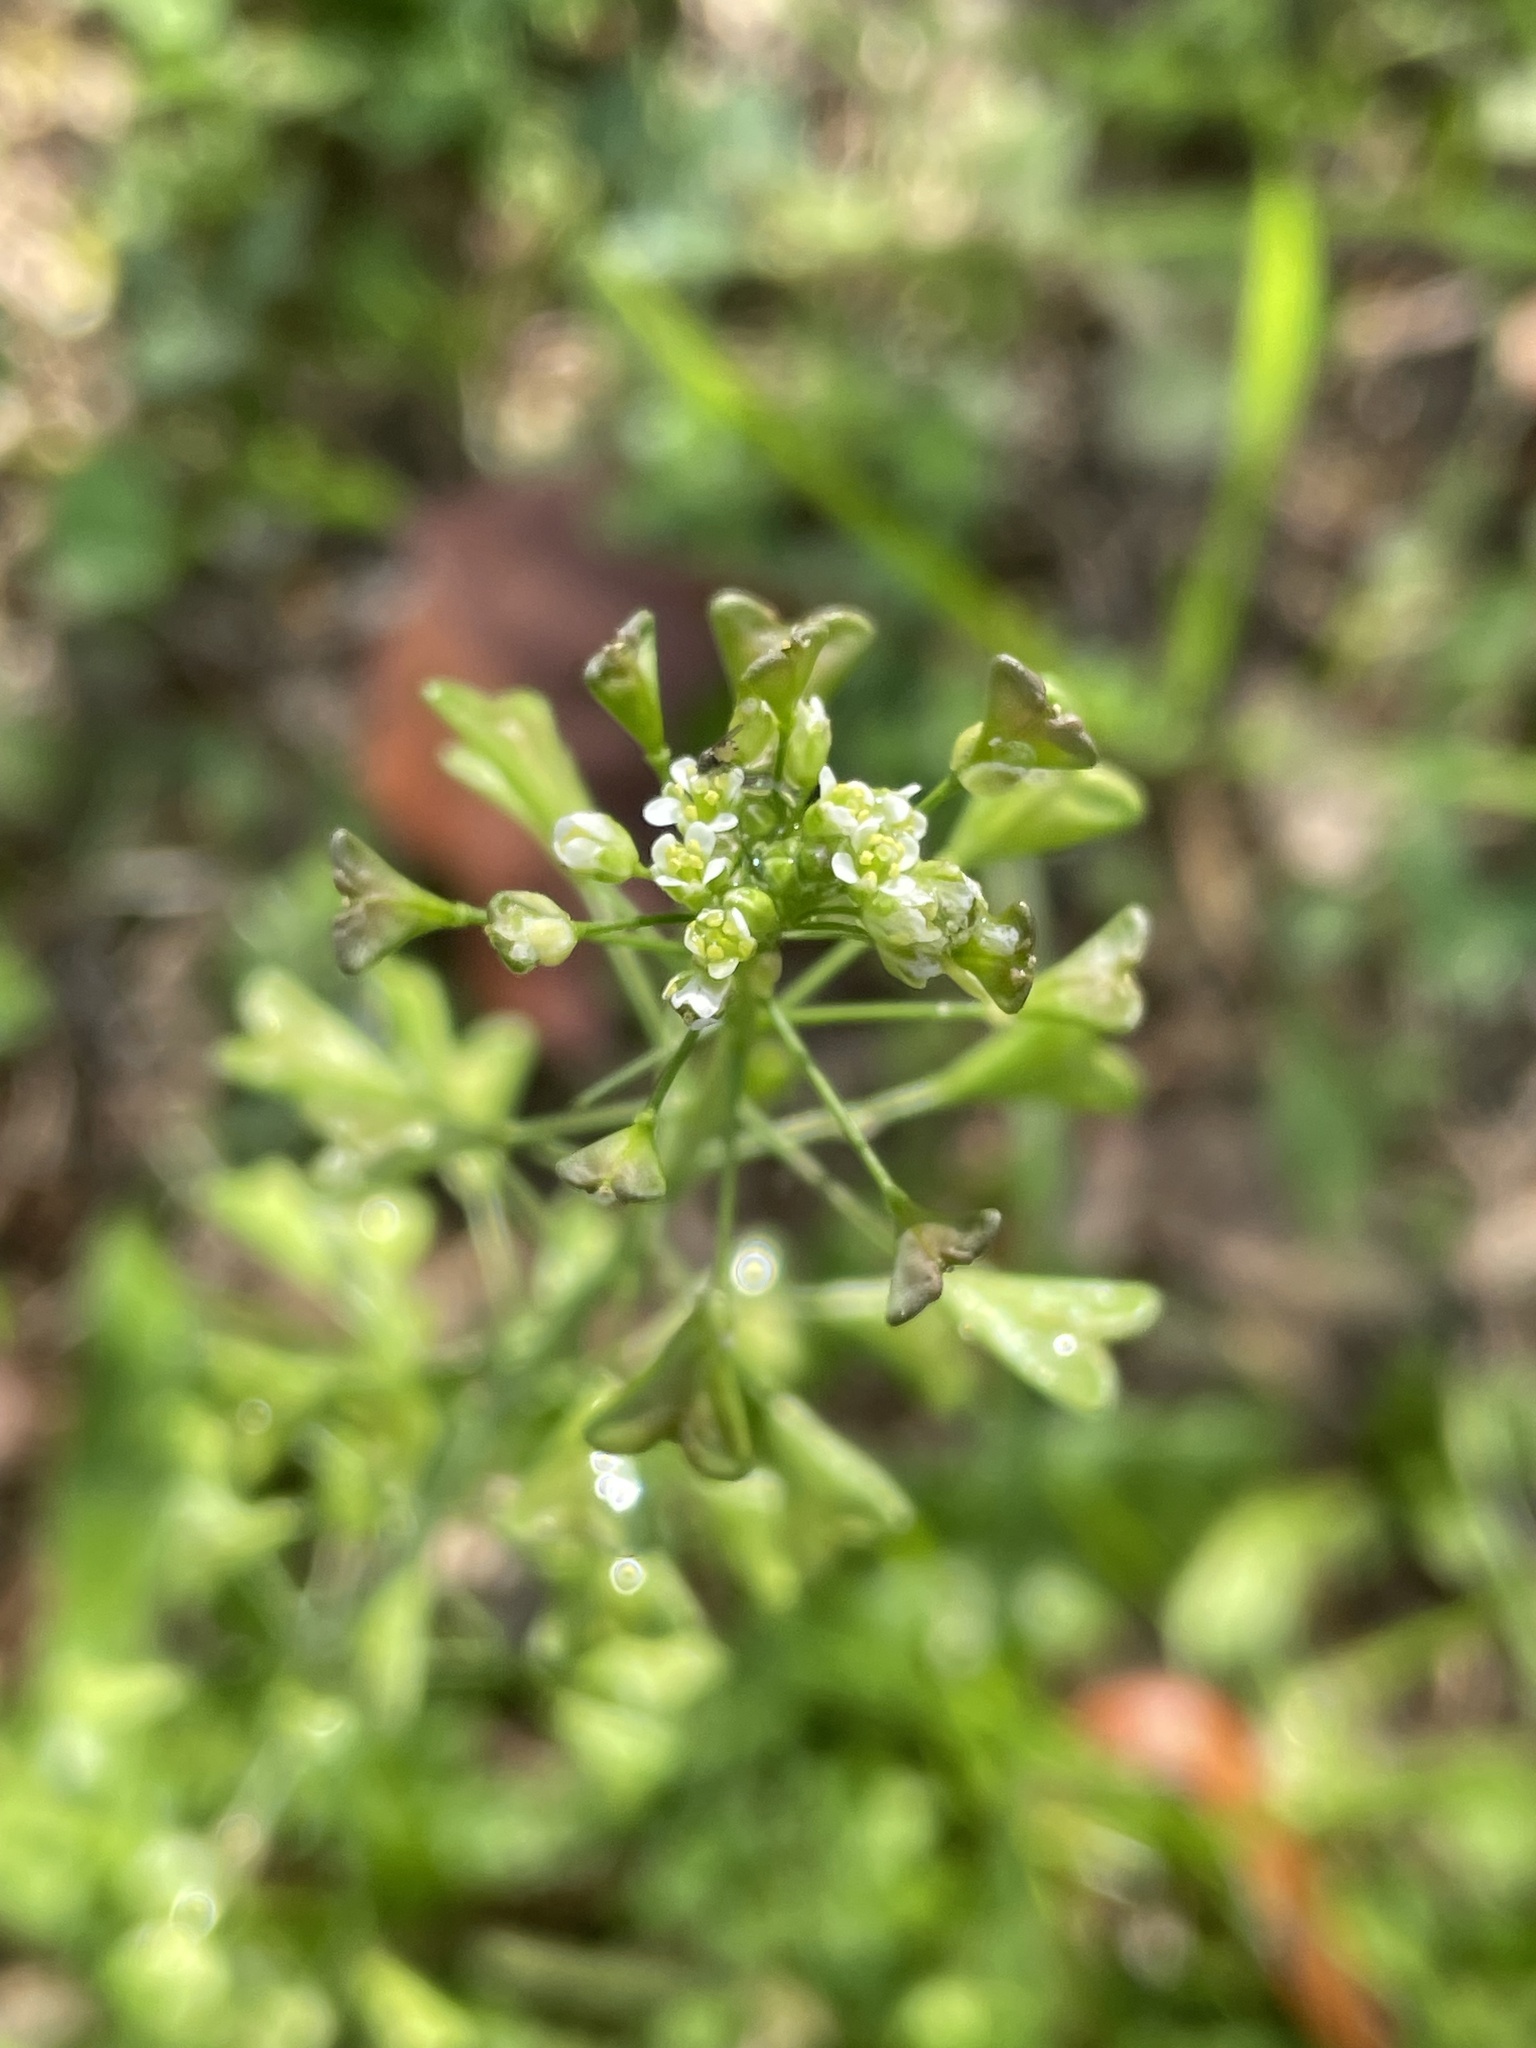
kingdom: Plantae
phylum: Tracheophyta
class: Magnoliopsida
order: Brassicales
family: Brassicaceae
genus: Capsella
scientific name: Capsella bursa-pastoris
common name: Shepherd's purse
